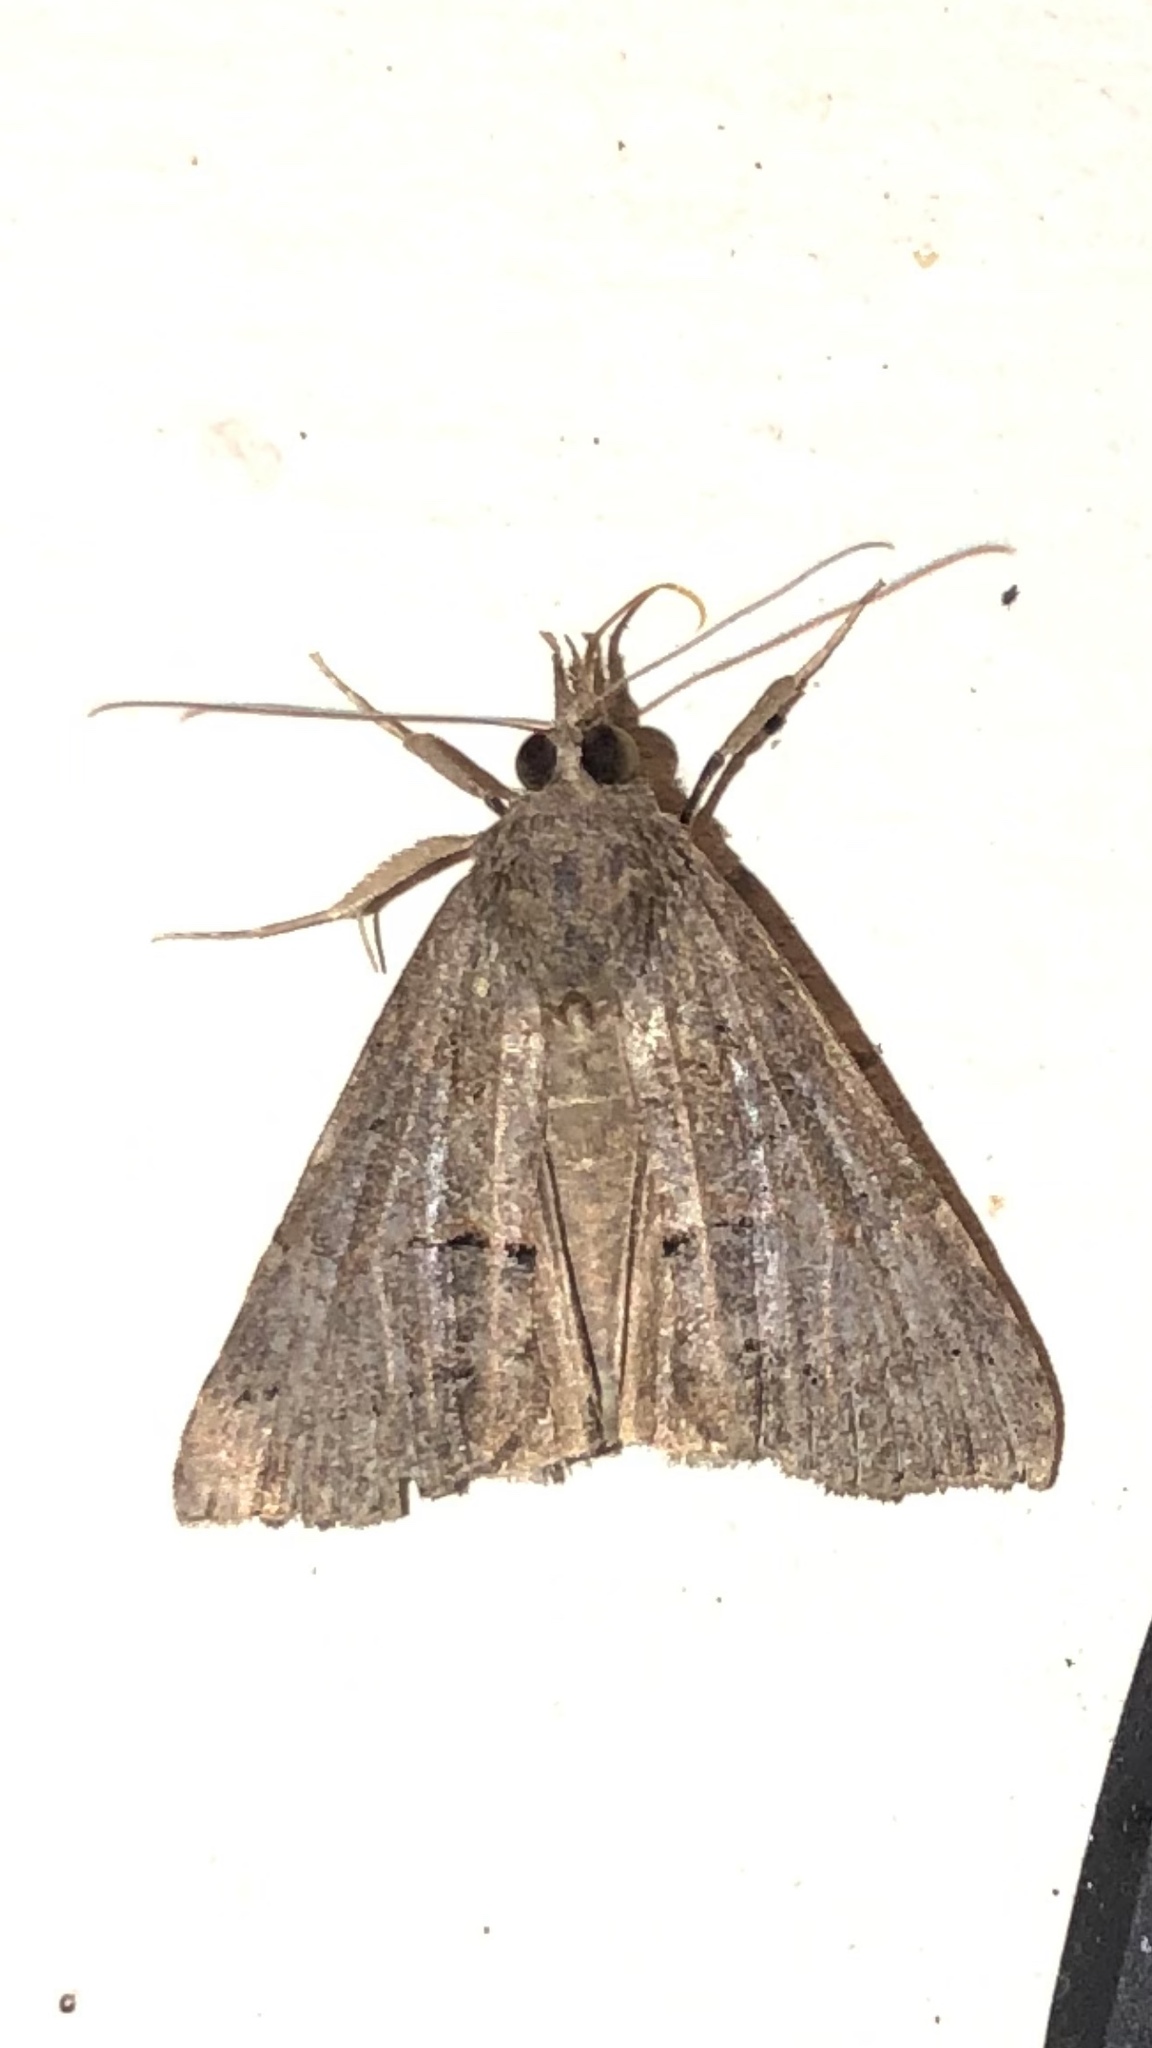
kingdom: Animalia
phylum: Arthropoda
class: Insecta
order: Lepidoptera
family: Erebidae
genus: Hypena
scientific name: Hypena scabra
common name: Green cloverworm
